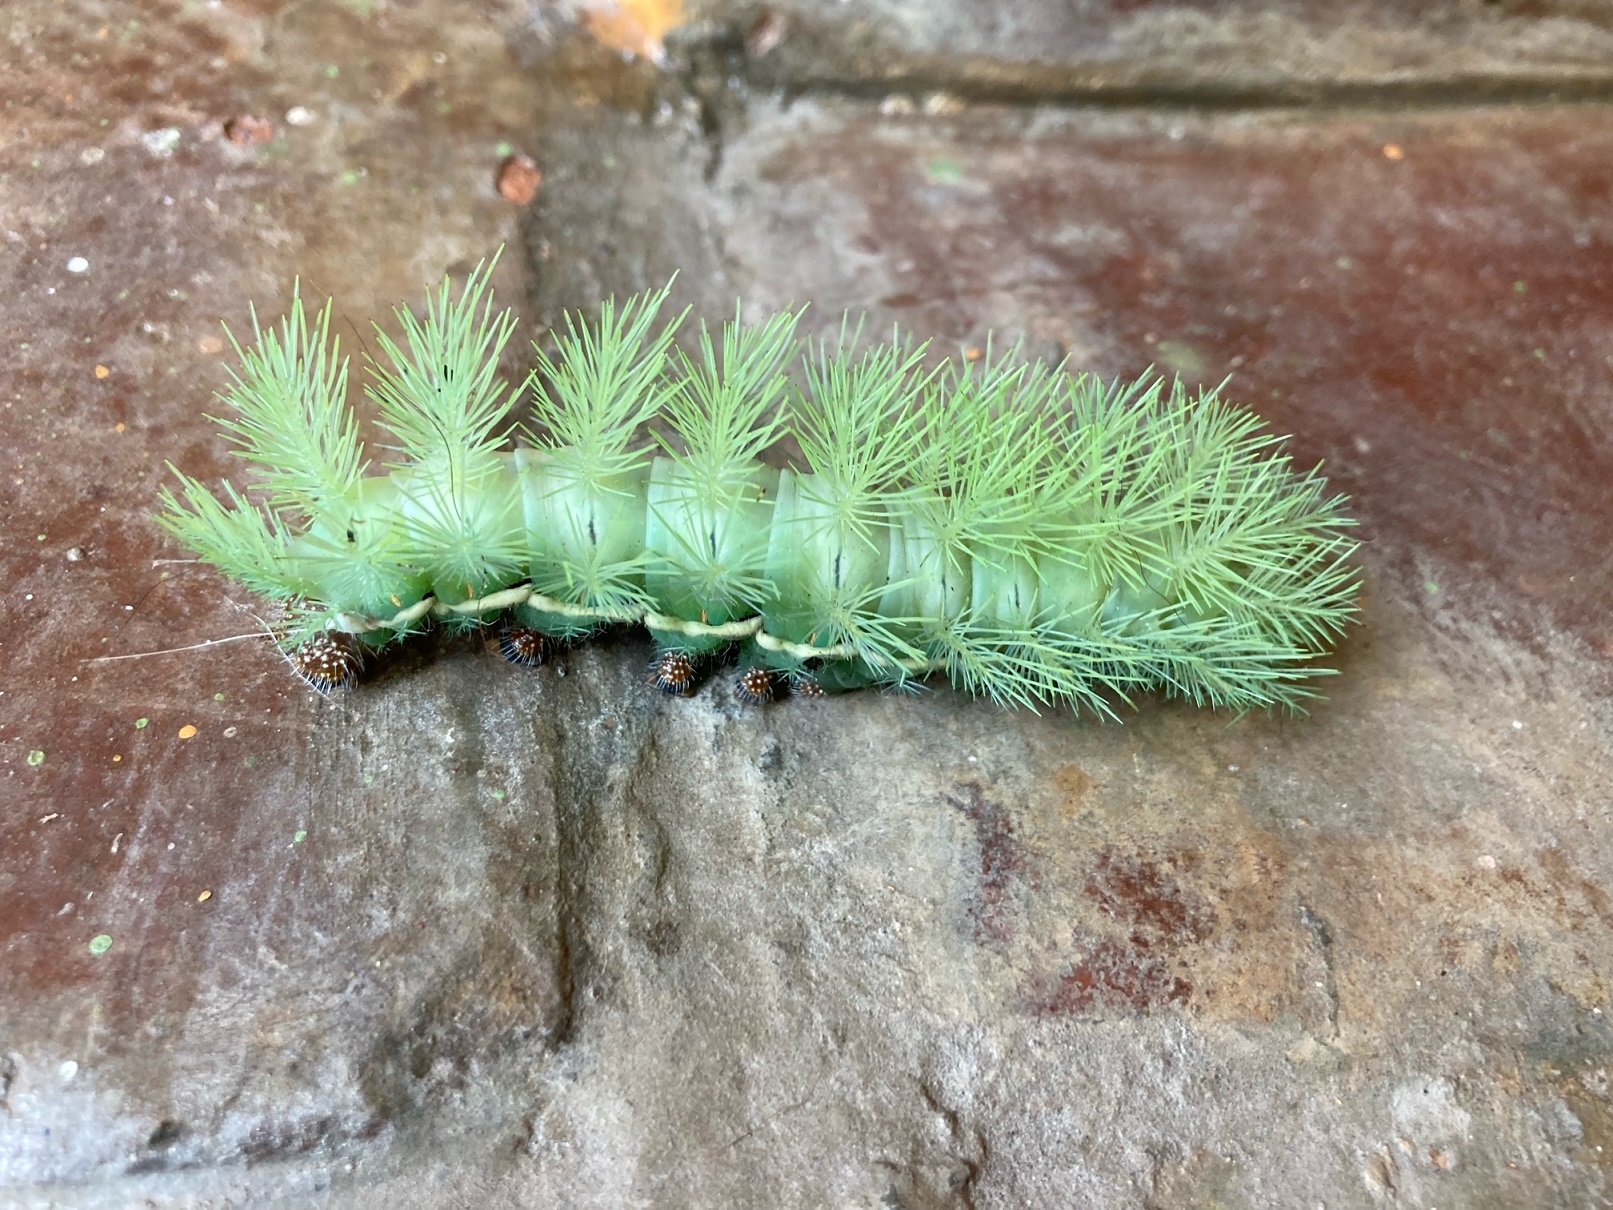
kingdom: Animalia
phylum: Arthropoda
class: Insecta
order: Lepidoptera
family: Saturniidae
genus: Automeris
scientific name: Automeris illustris
